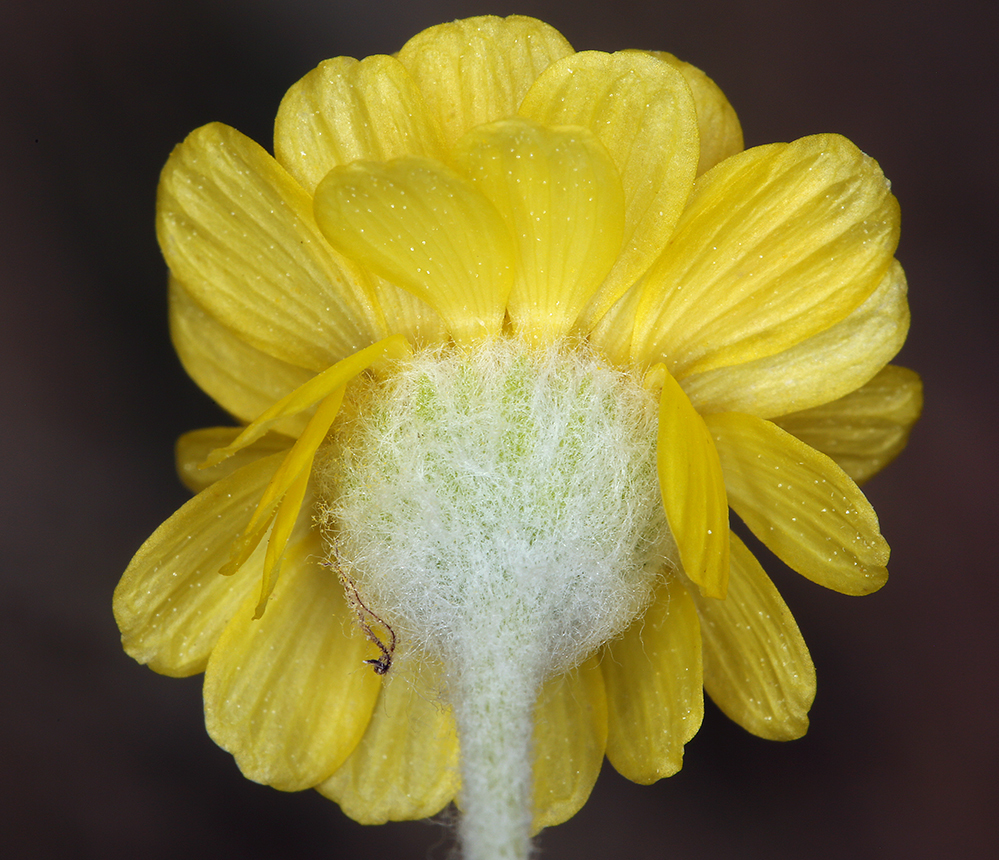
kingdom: Plantae
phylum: Tracheophyta
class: Magnoliopsida
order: Asterales
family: Asteraceae
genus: Baileya
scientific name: Baileya pleniradiata
